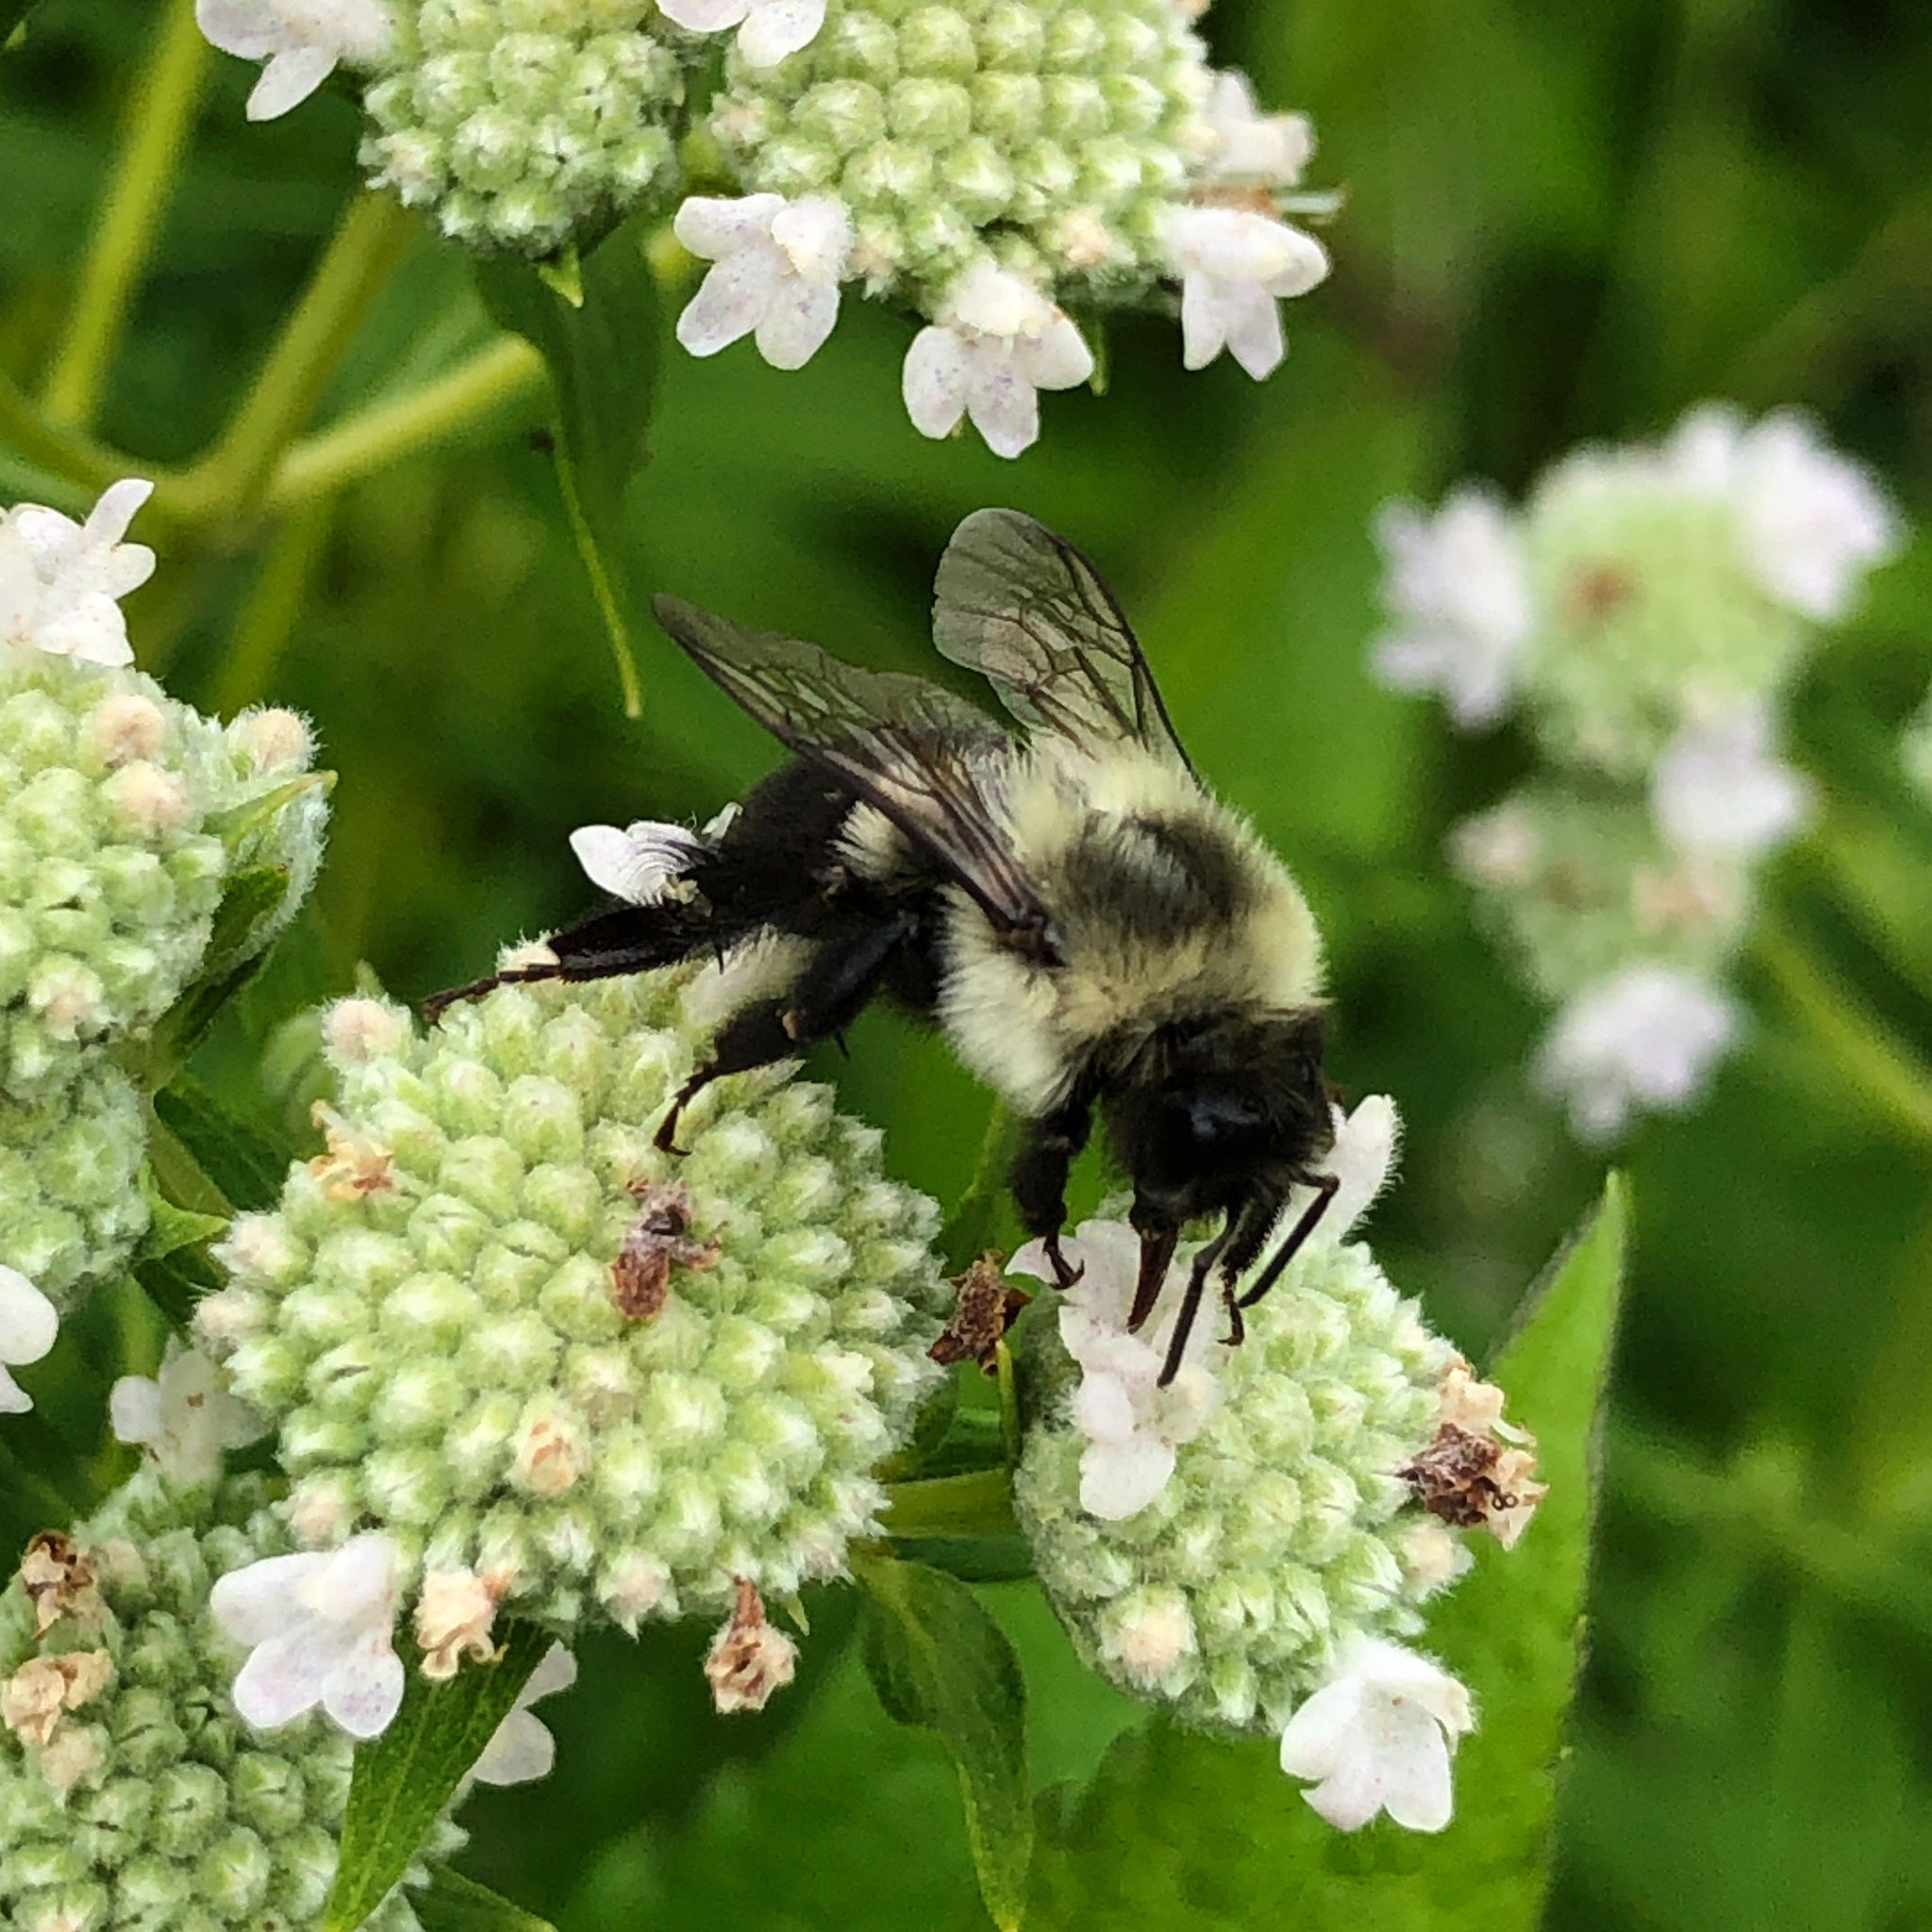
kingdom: Animalia
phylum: Arthropoda
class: Insecta
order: Hymenoptera
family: Apidae
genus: Bombus
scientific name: Bombus impatiens
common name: Common eastern bumble bee
